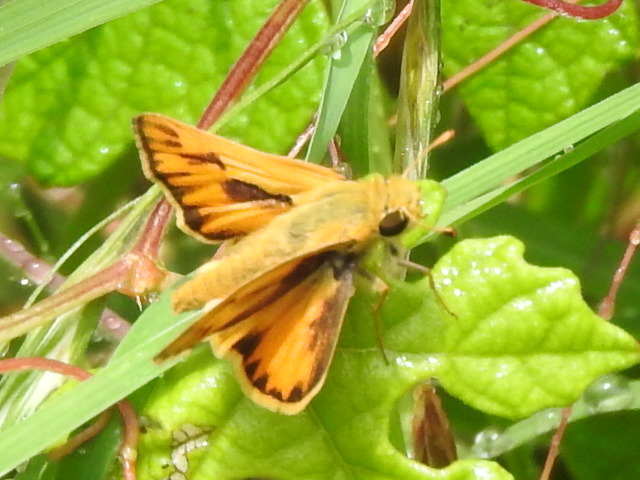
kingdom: Animalia
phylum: Arthropoda
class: Insecta
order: Lepidoptera
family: Hesperiidae
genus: Hylephila
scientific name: Hylephila phyleus
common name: Fiery skipper
